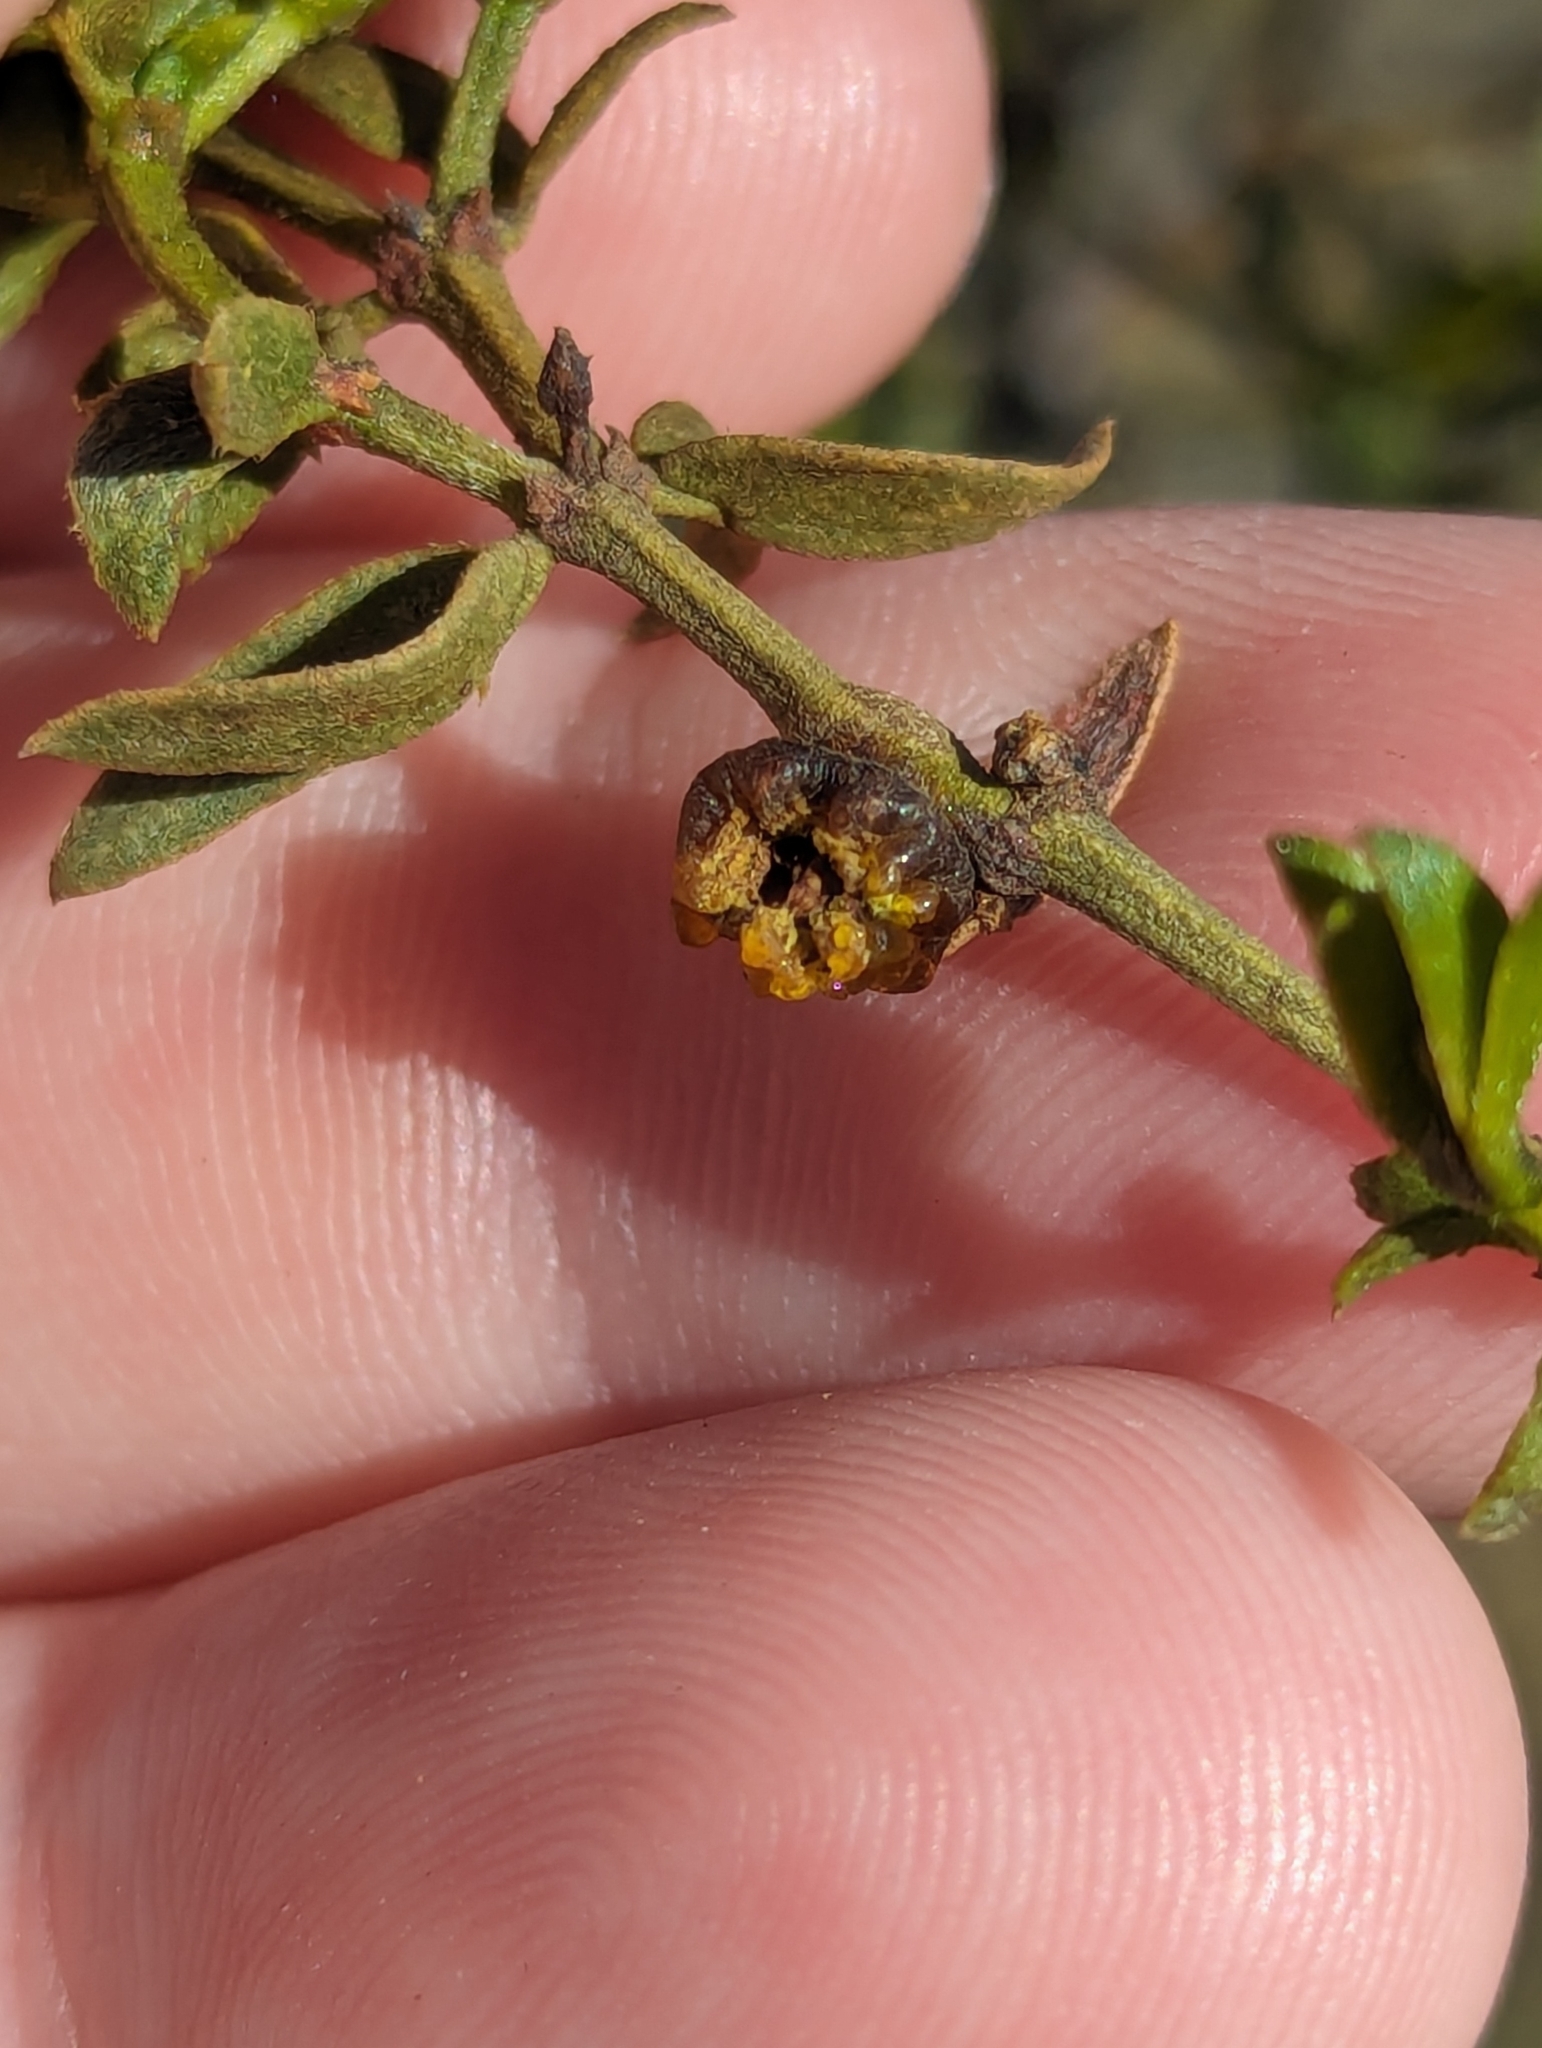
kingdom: Animalia
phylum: Arthropoda
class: Insecta
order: Diptera
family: Cecidomyiidae
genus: Asphondylia
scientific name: Asphondylia resinosa
